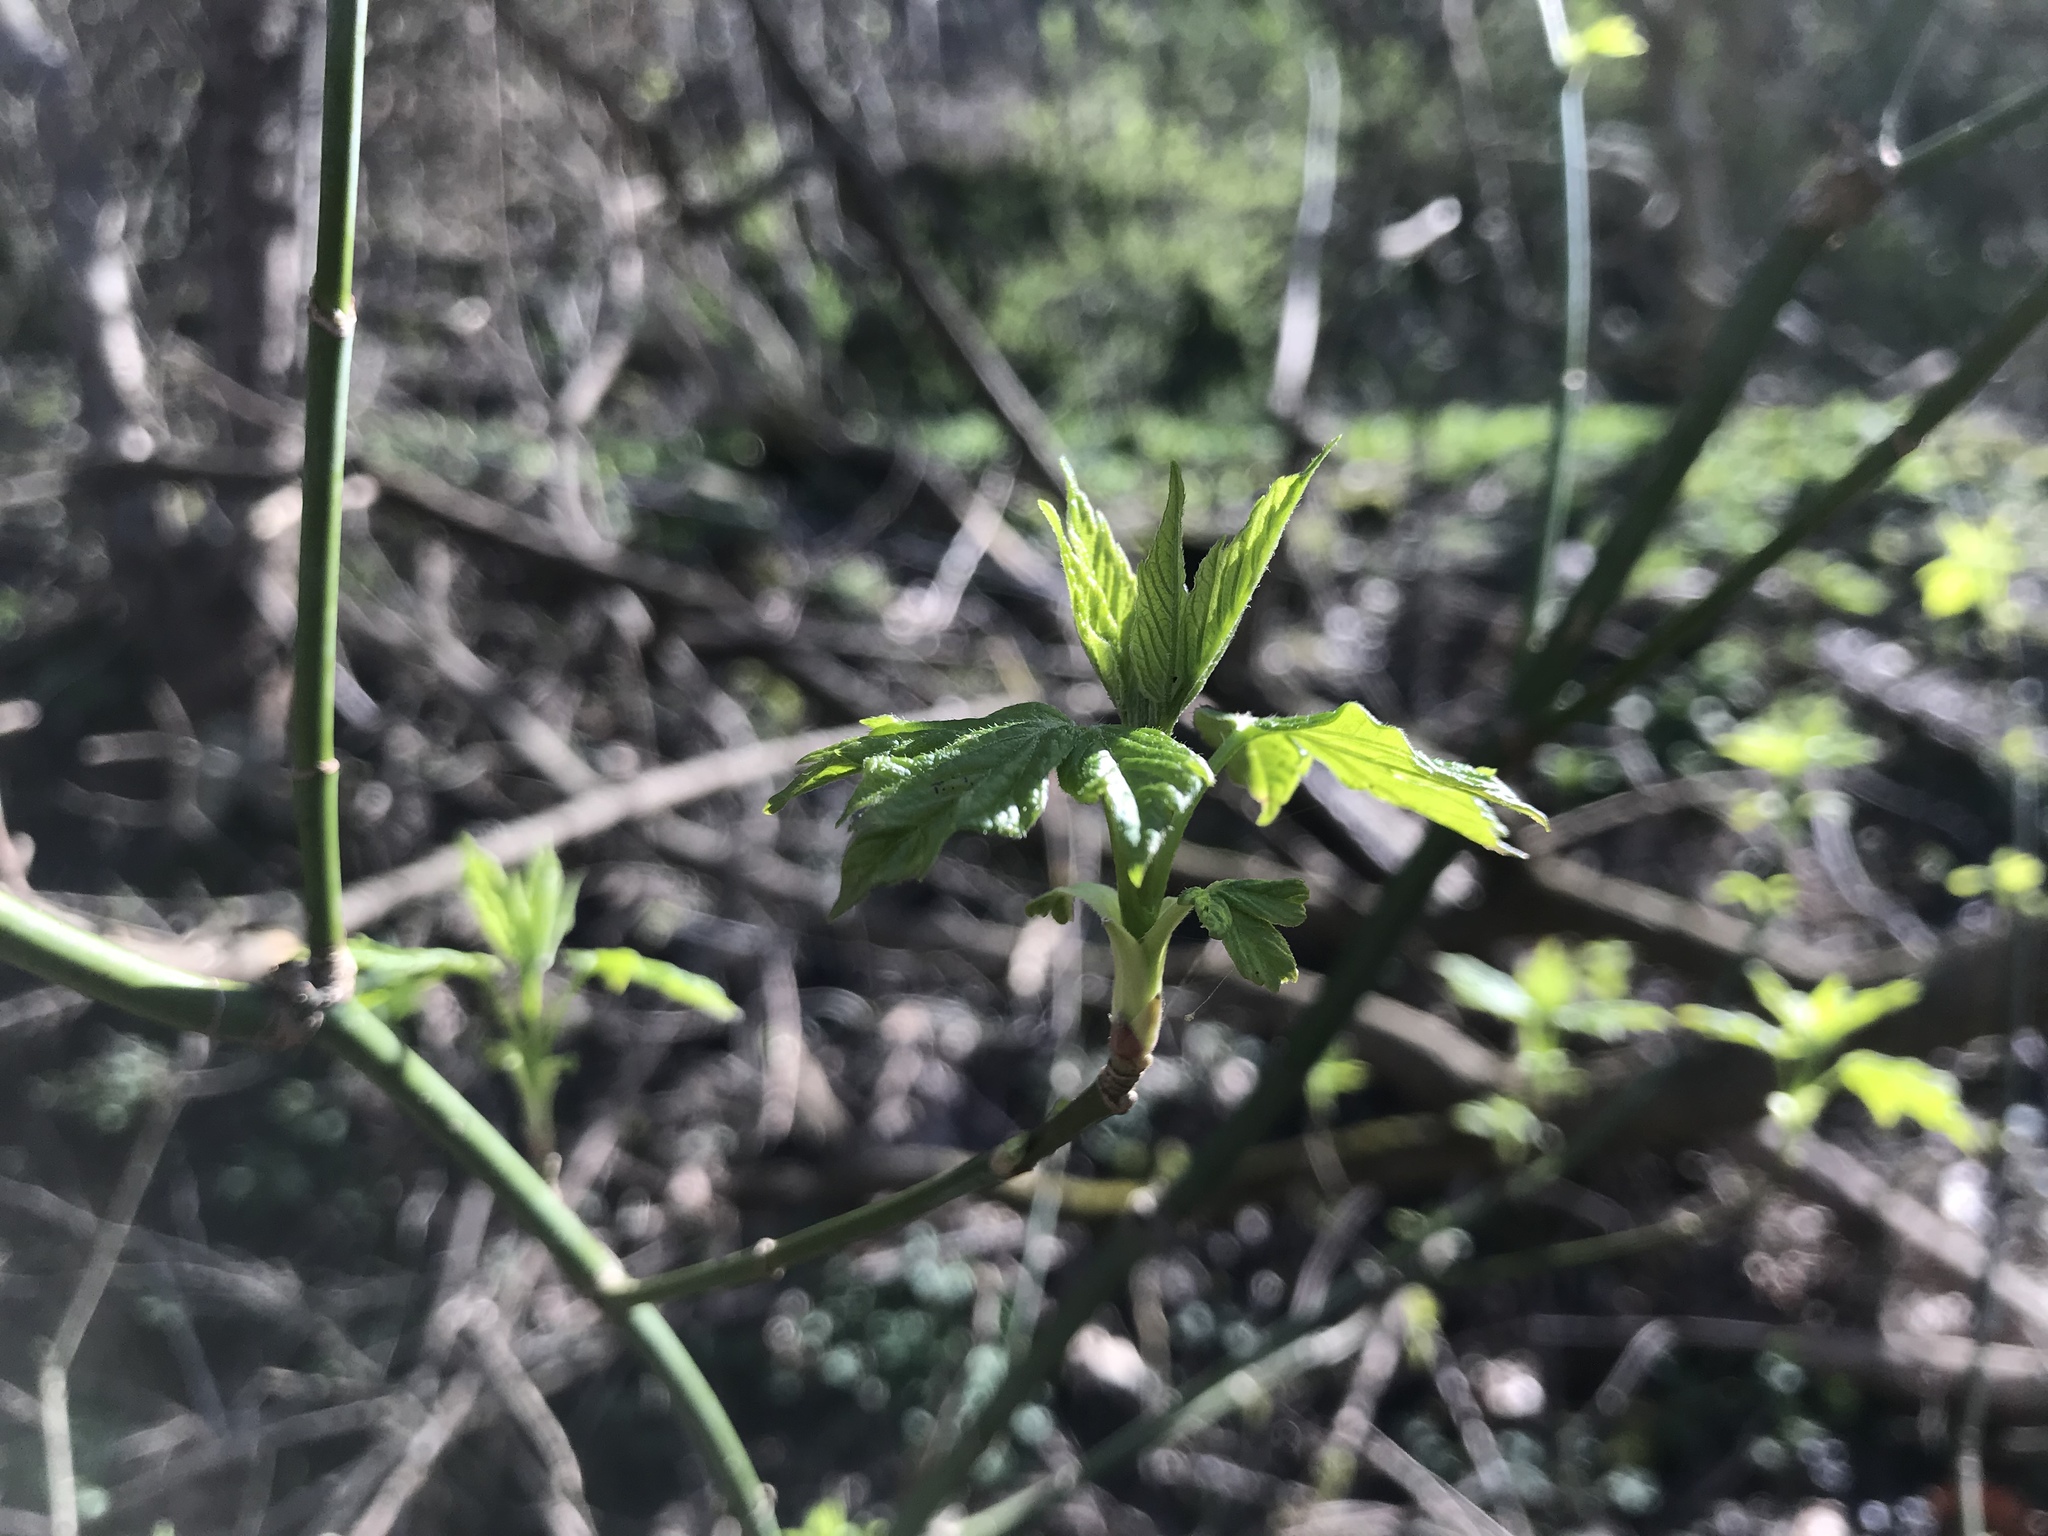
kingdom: Plantae
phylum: Tracheophyta
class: Magnoliopsida
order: Sapindales
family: Sapindaceae
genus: Acer
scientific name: Acer negundo
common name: Ashleaf maple
